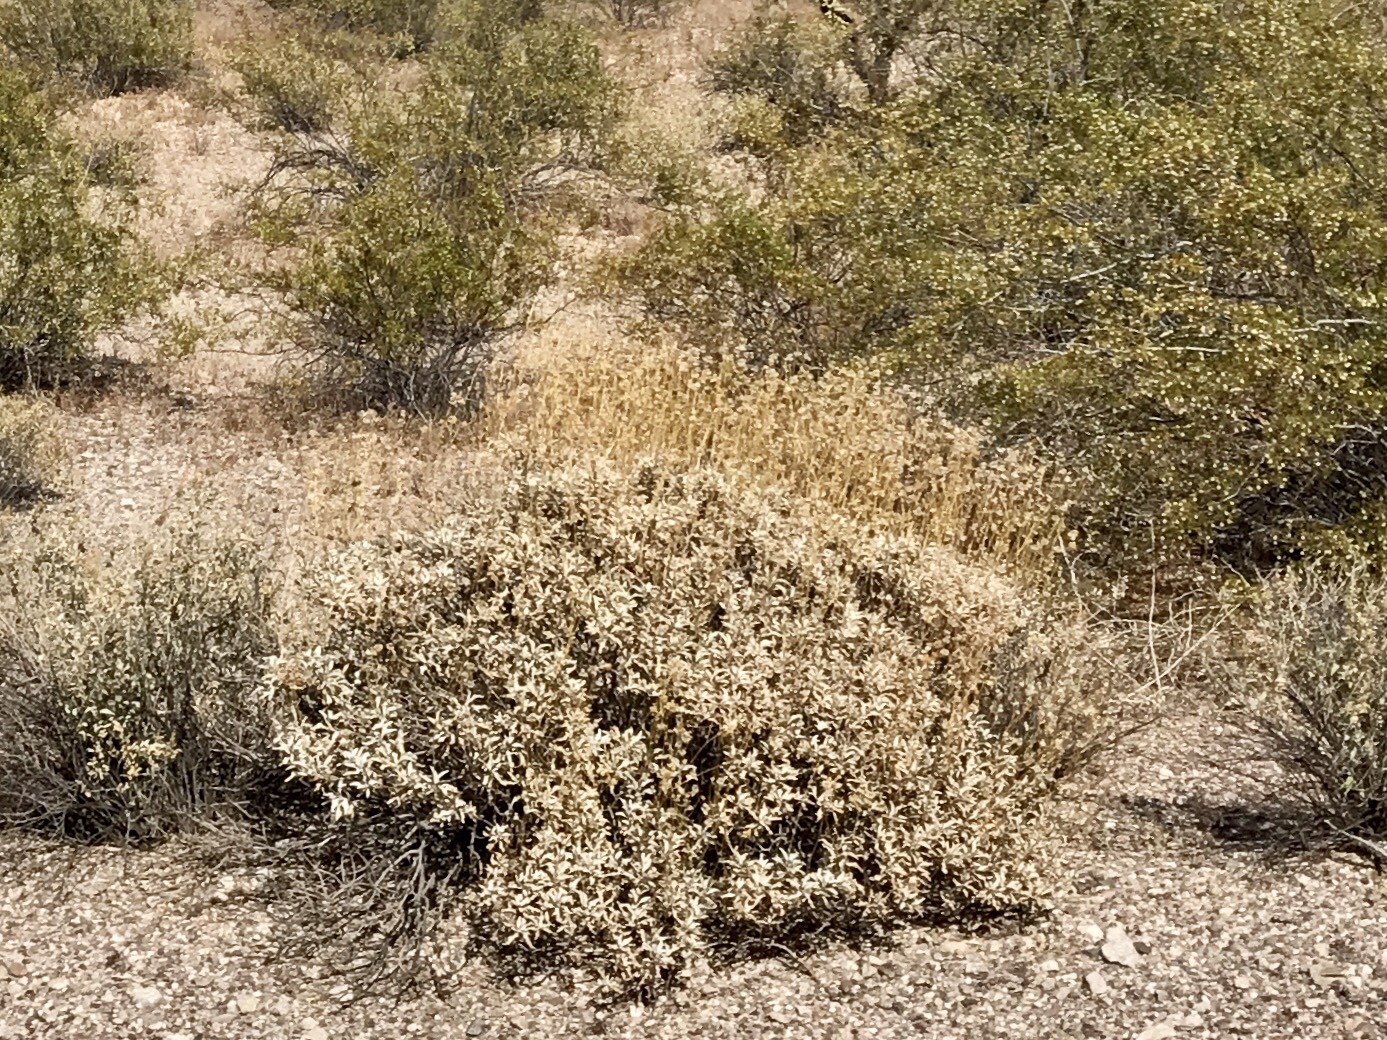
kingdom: Plantae
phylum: Tracheophyta
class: Magnoliopsida
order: Asterales
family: Asteraceae
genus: Encelia
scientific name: Encelia farinosa
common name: Brittlebush
